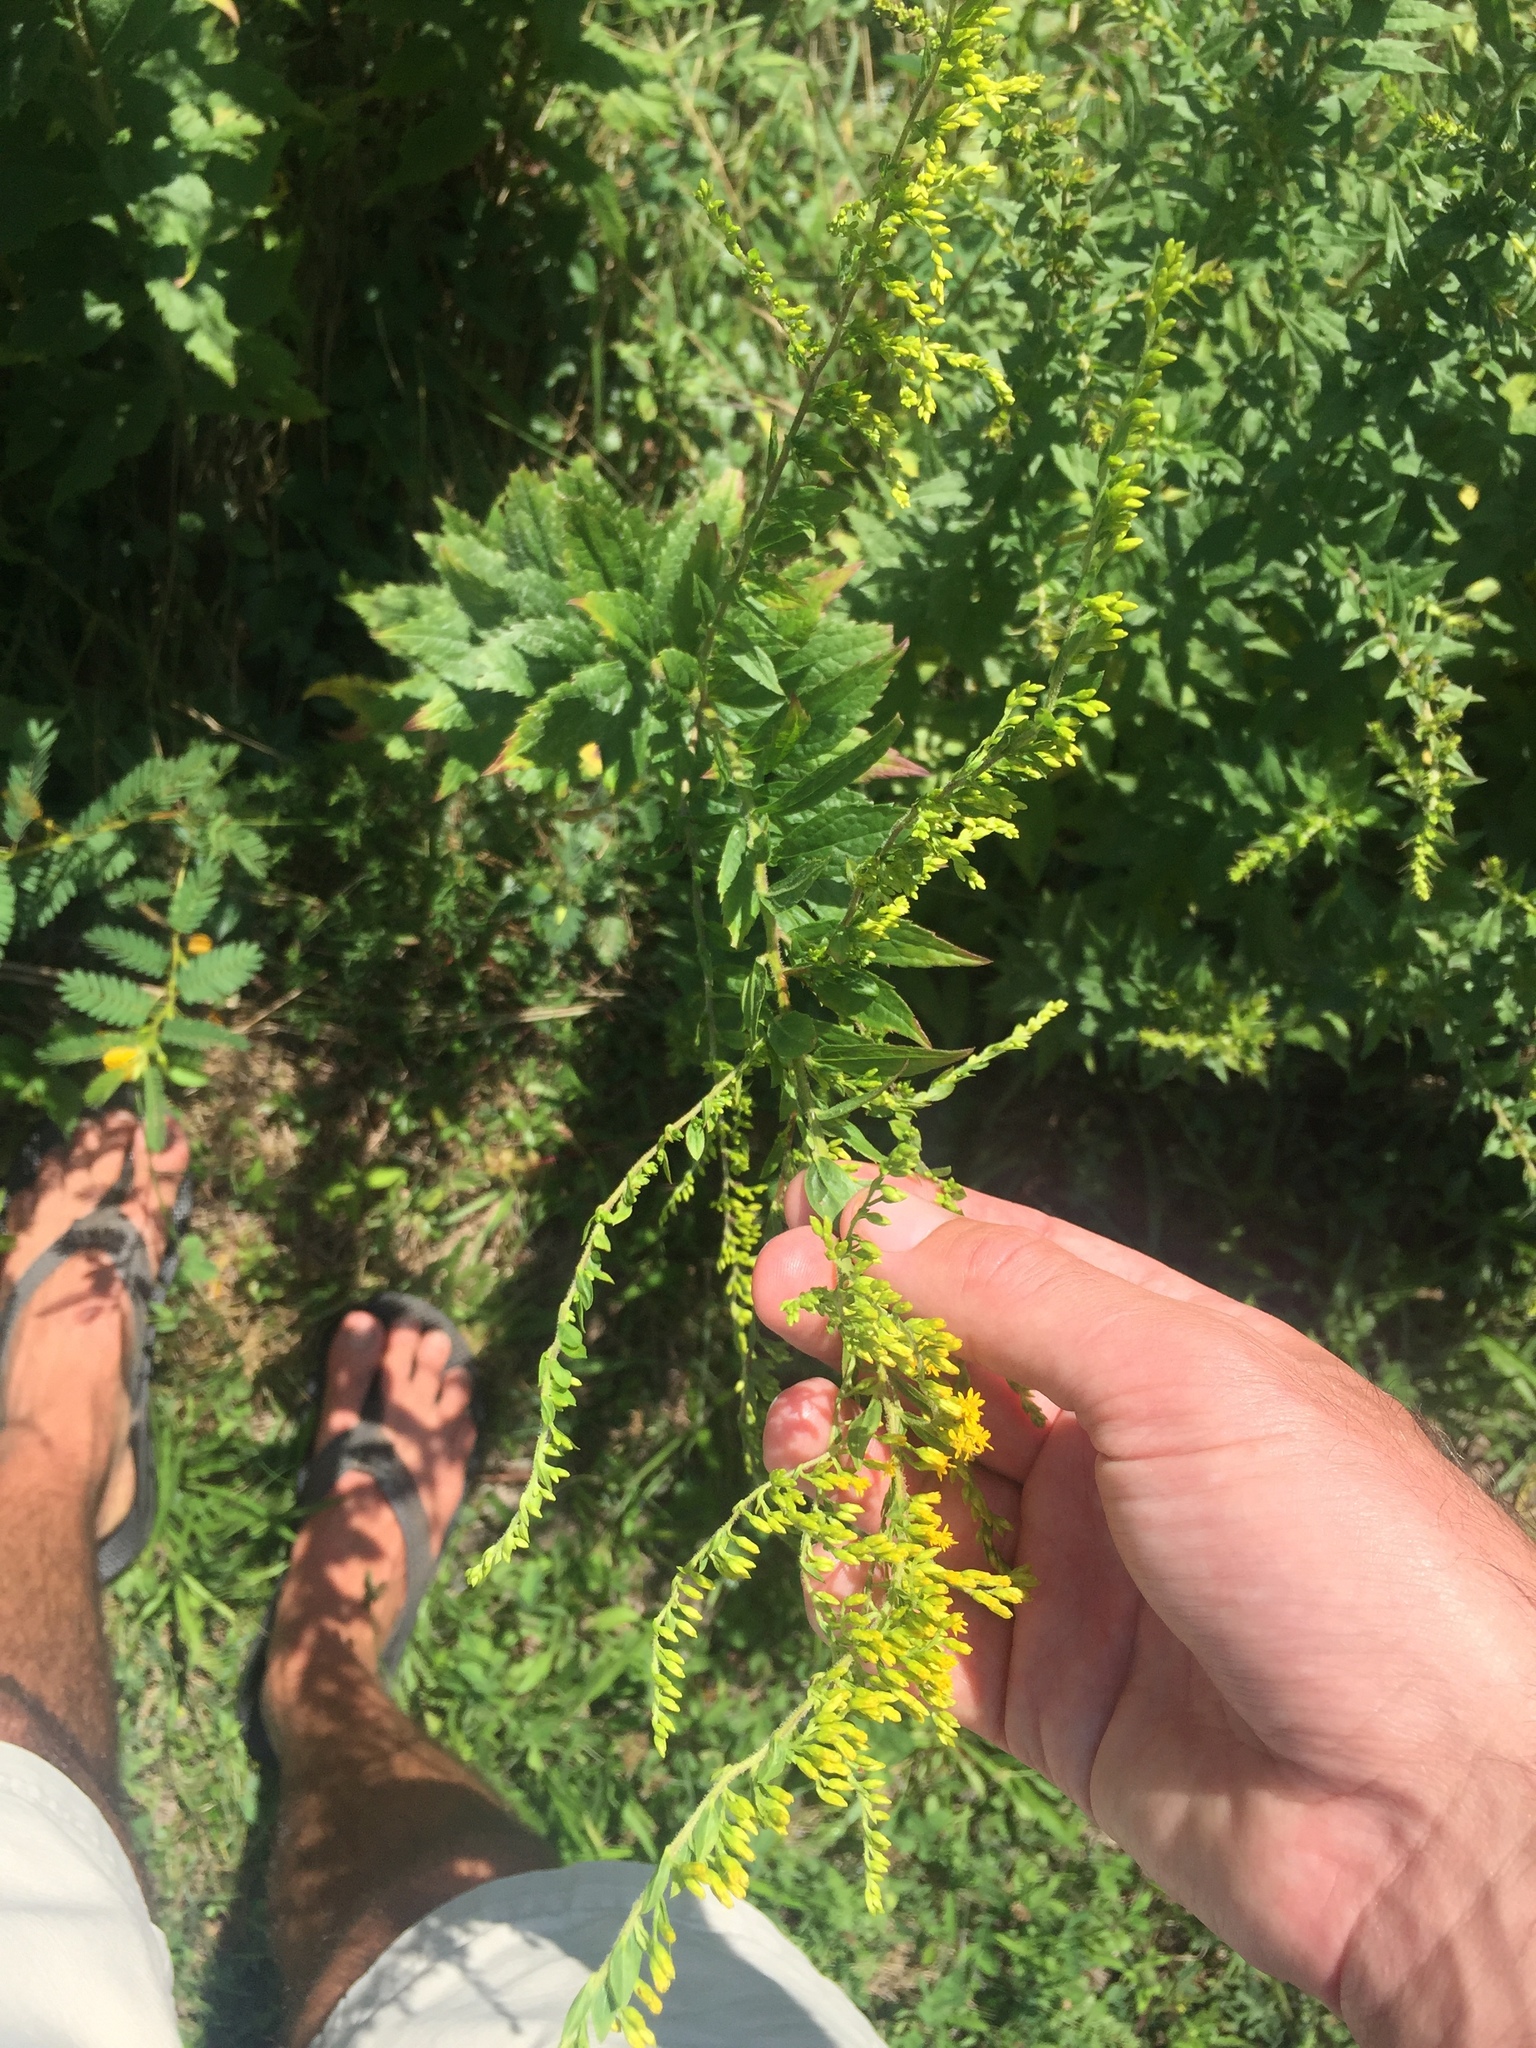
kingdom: Plantae
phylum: Tracheophyta
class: Magnoliopsida
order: Asterales
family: Asteraceae
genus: Solidago
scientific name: Solidago rugosa
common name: Rough-stemmed goldenrod
